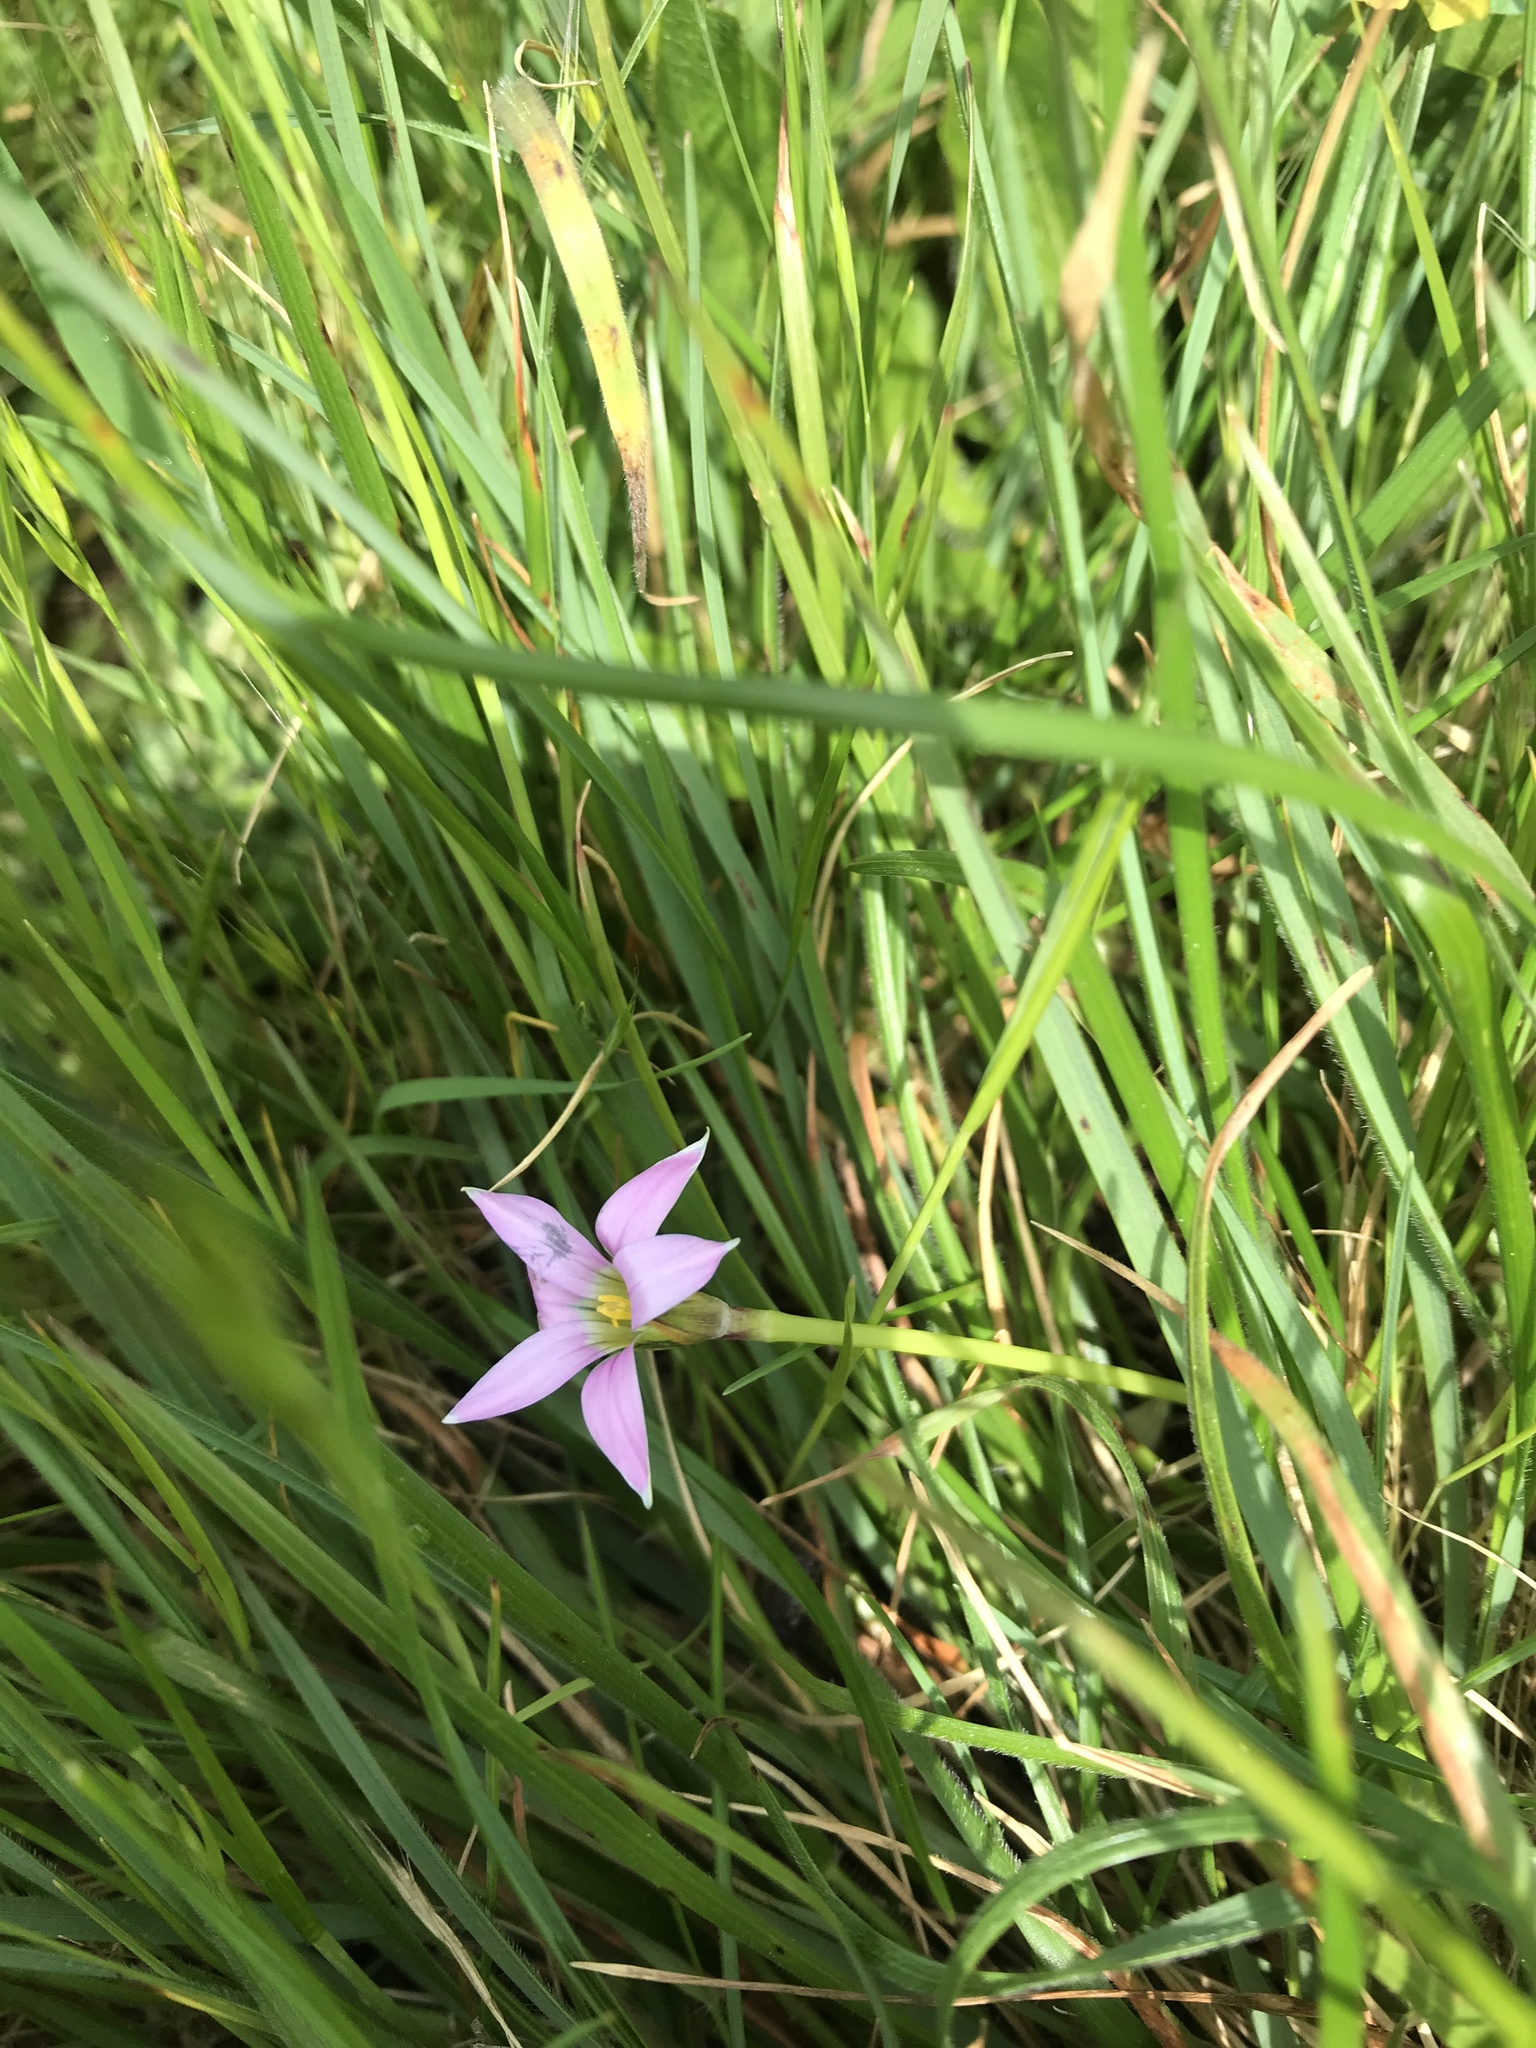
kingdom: Plantae
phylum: Tracheophyta
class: Liliopsida
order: Asparagales
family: Iridaceae
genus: Romulea
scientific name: Romulea rosea
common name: Oniongrass
